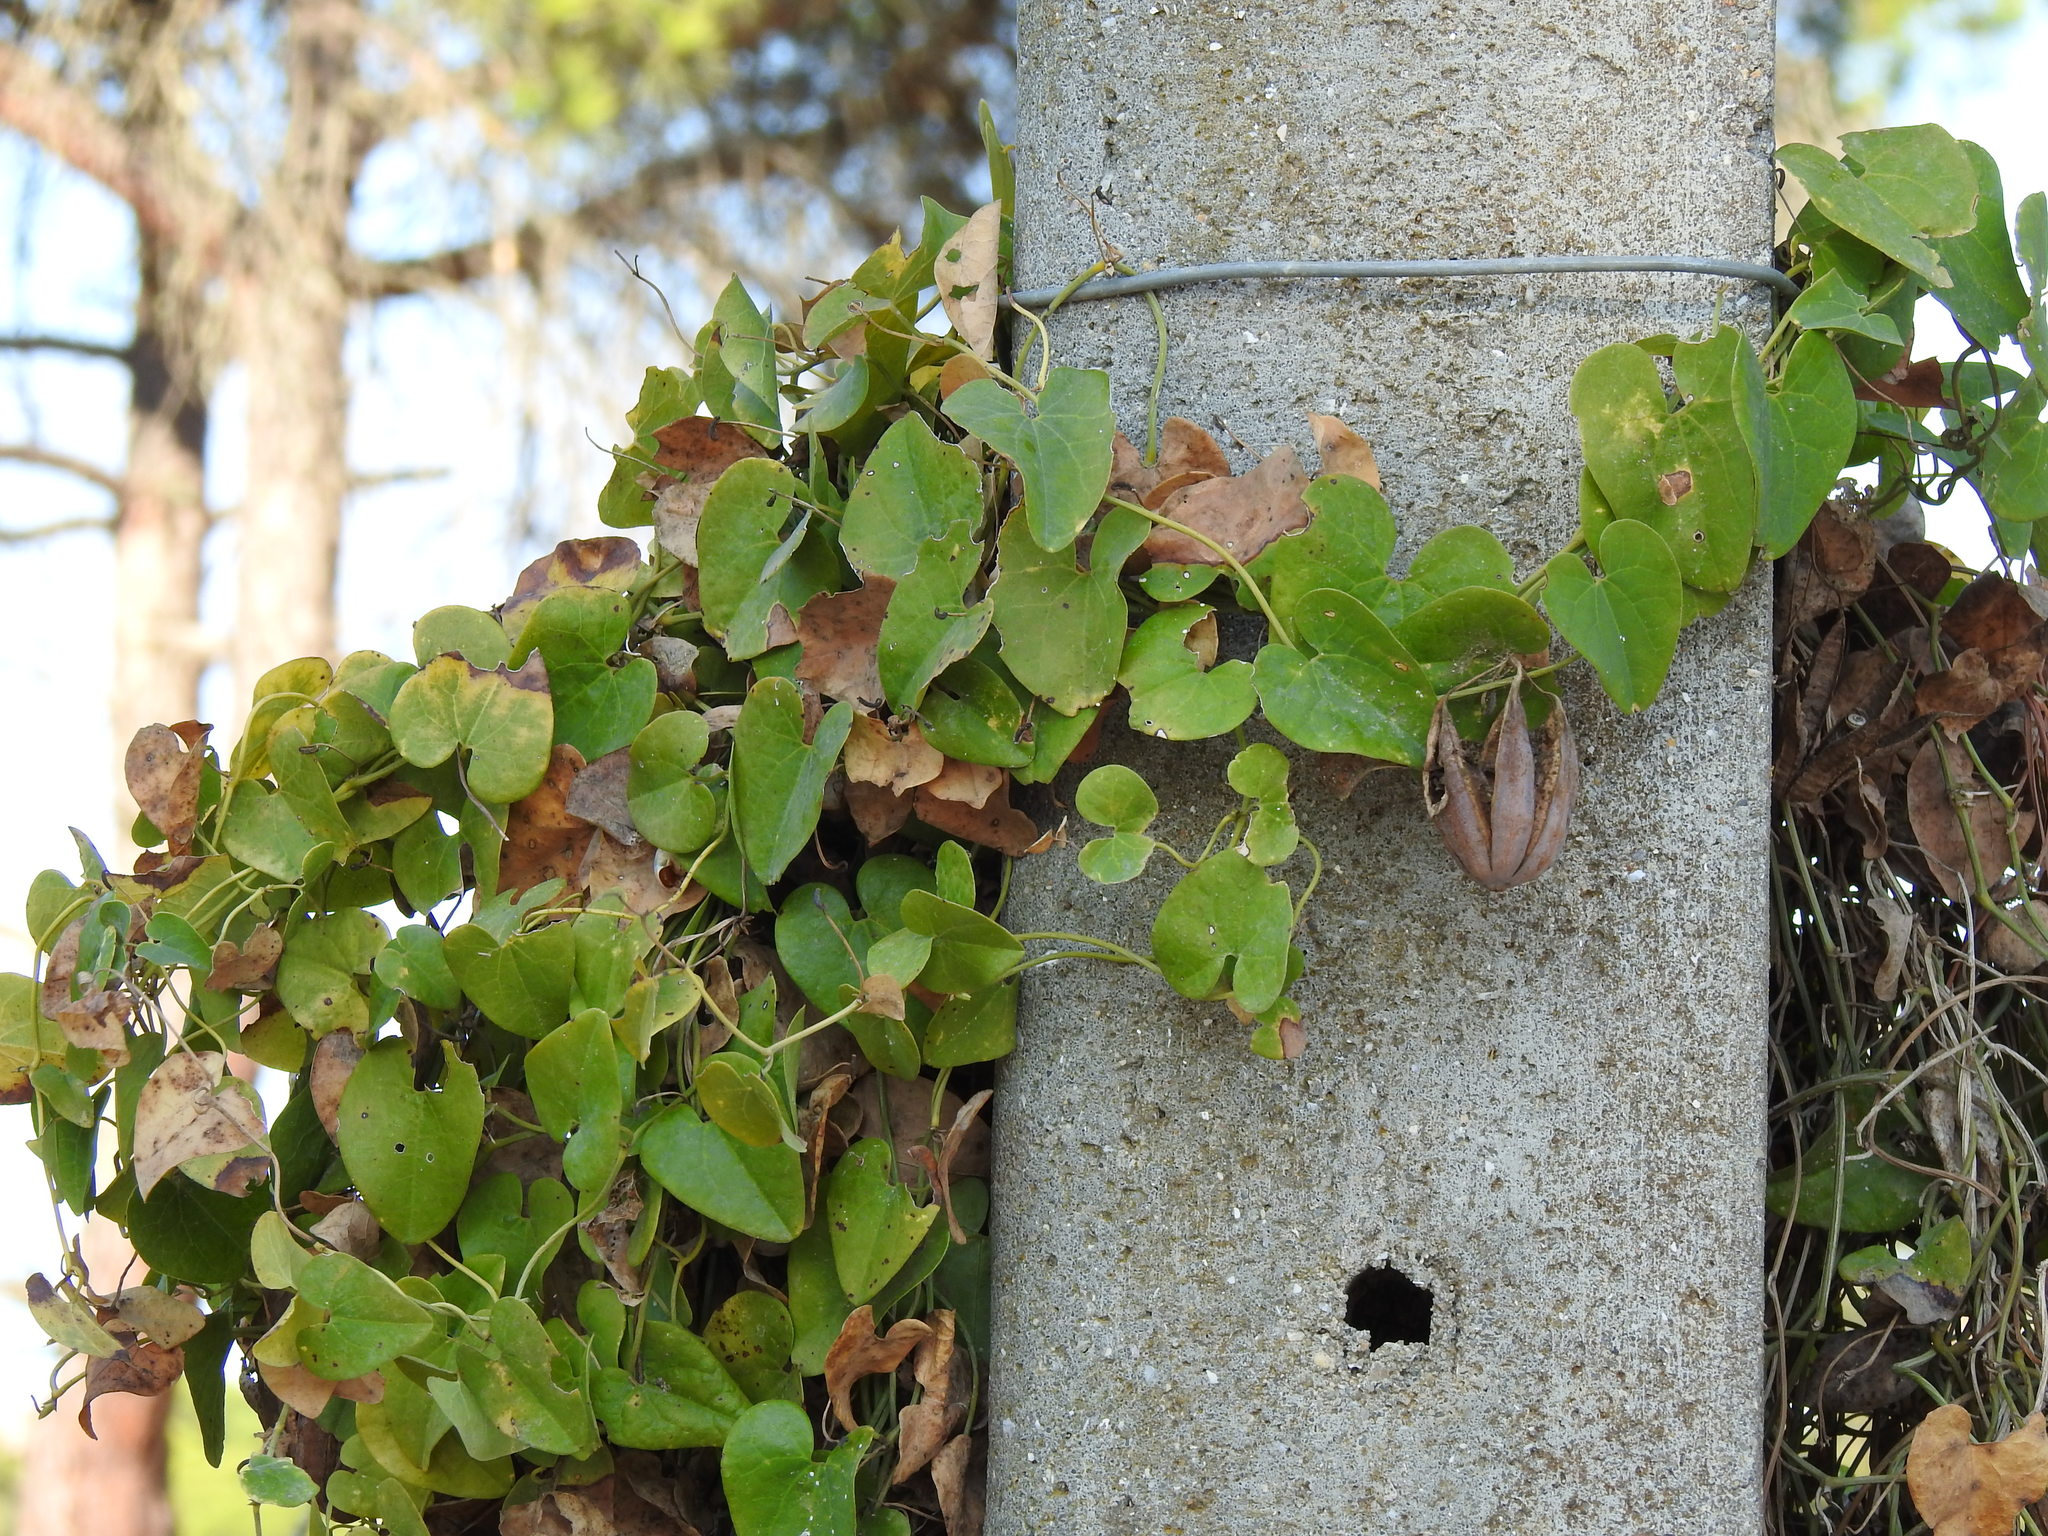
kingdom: Plantae
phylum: Tracheophyta
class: Magnoliopsida
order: Piperales
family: Aristolochiaceae
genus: Aristolochia
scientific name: Aristolochia baetica
